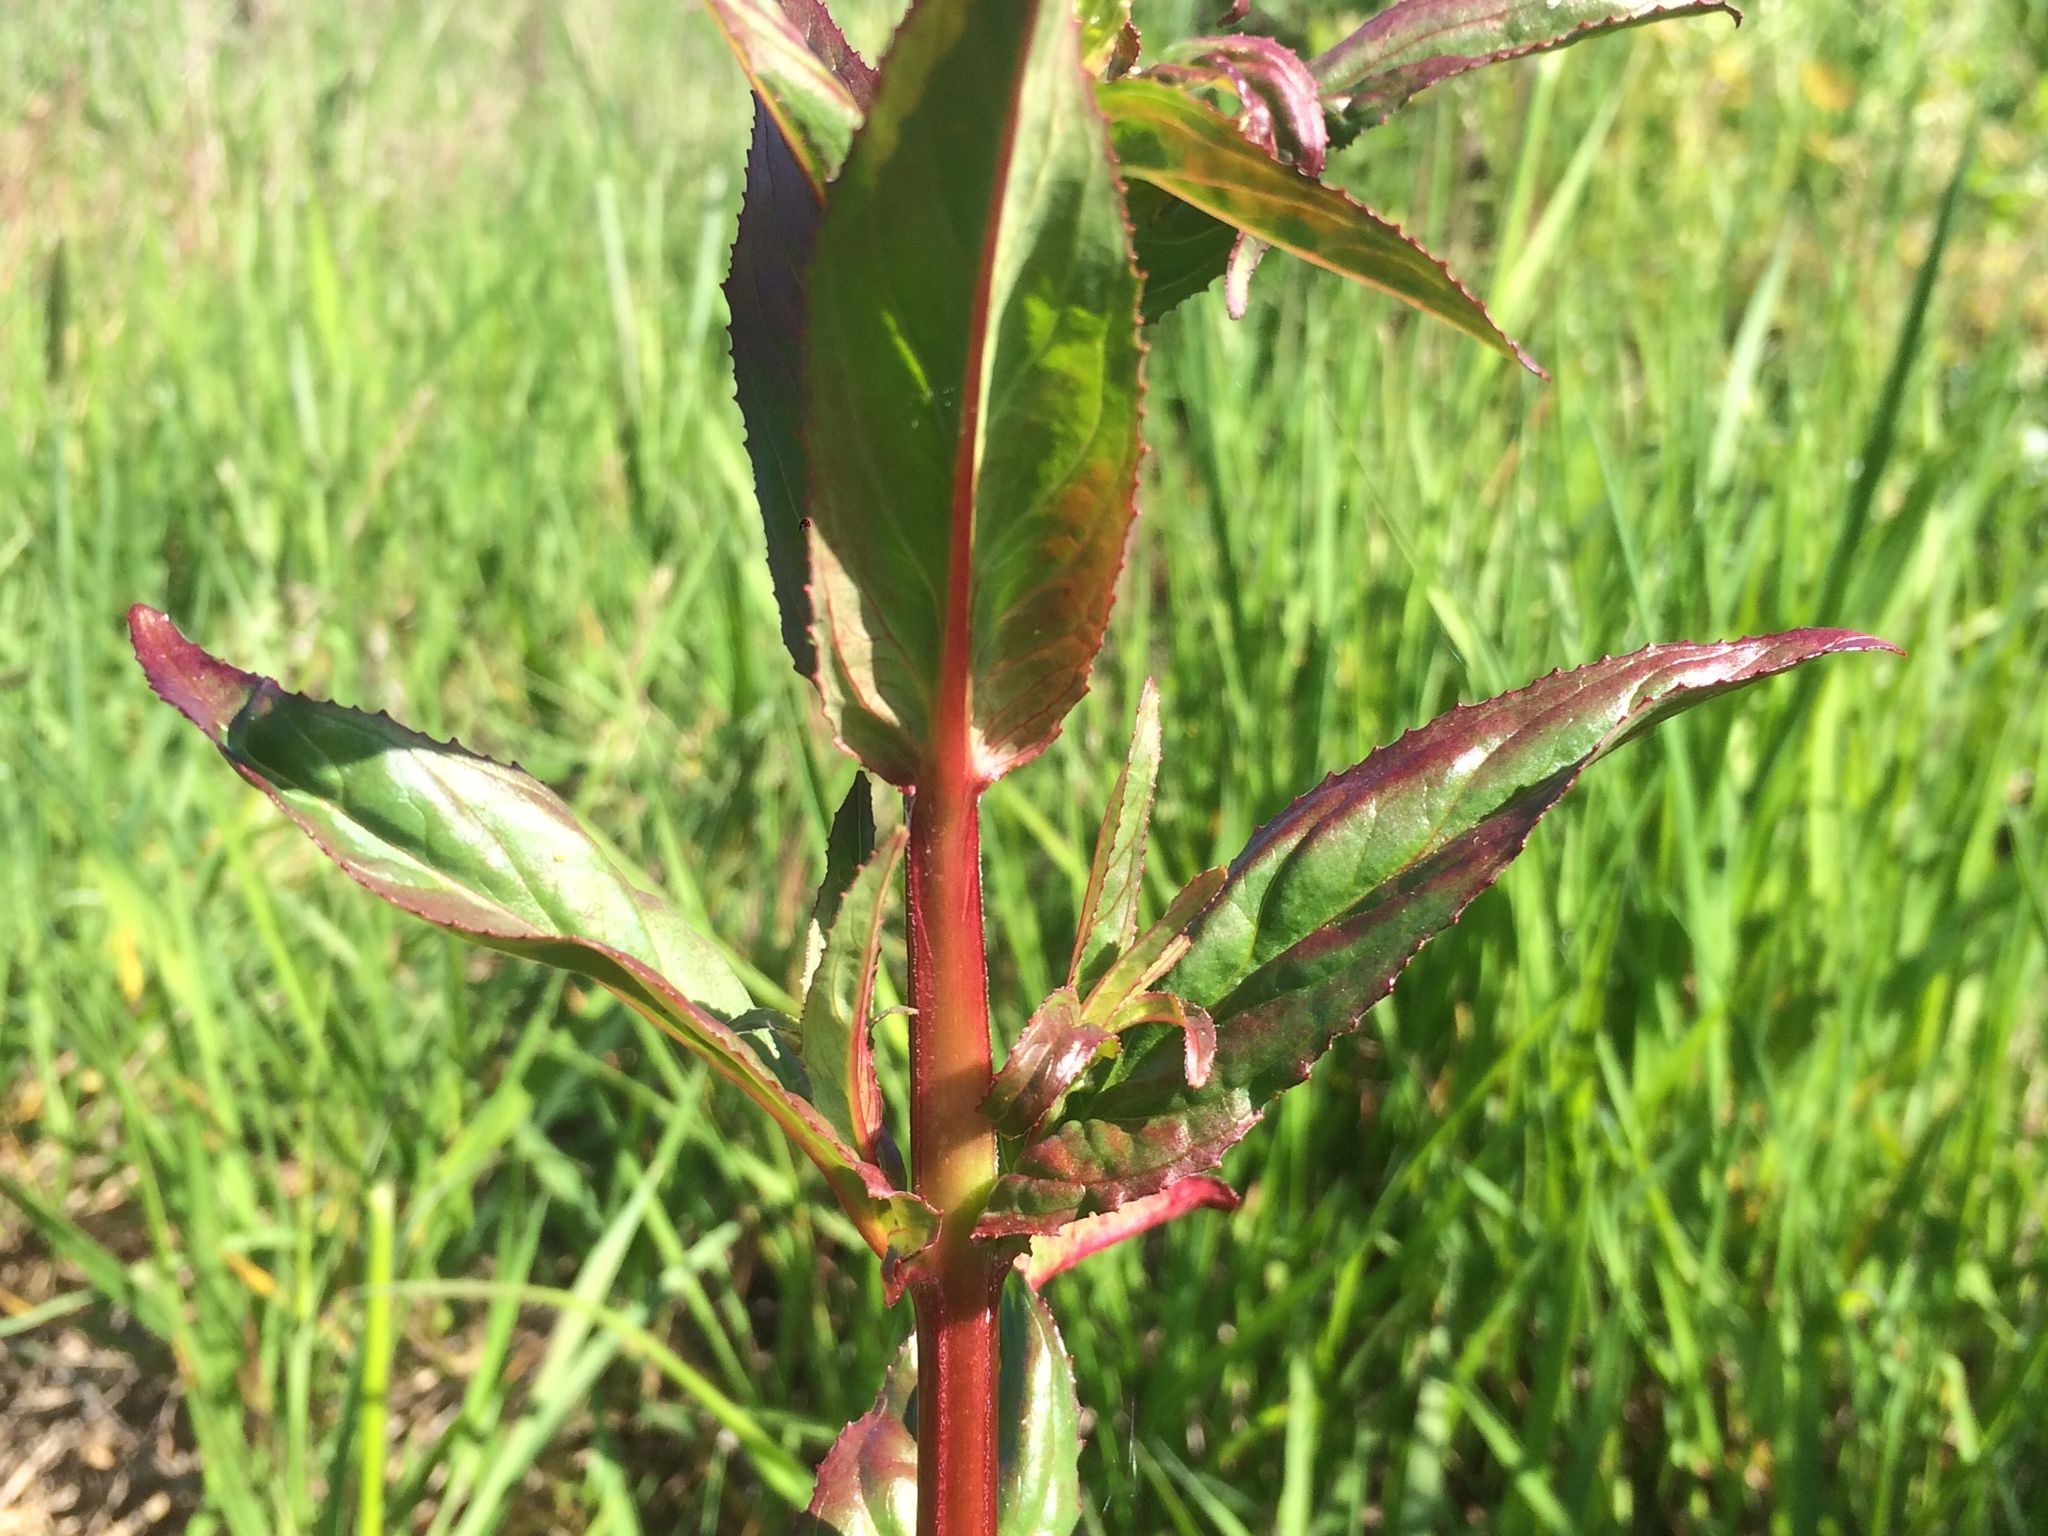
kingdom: Plantae
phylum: Tracheophyta
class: Magnoliopsida
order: Myrtales
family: Onagraceae
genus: Epilobium
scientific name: Epilobium ciliatum
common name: American willowherb
